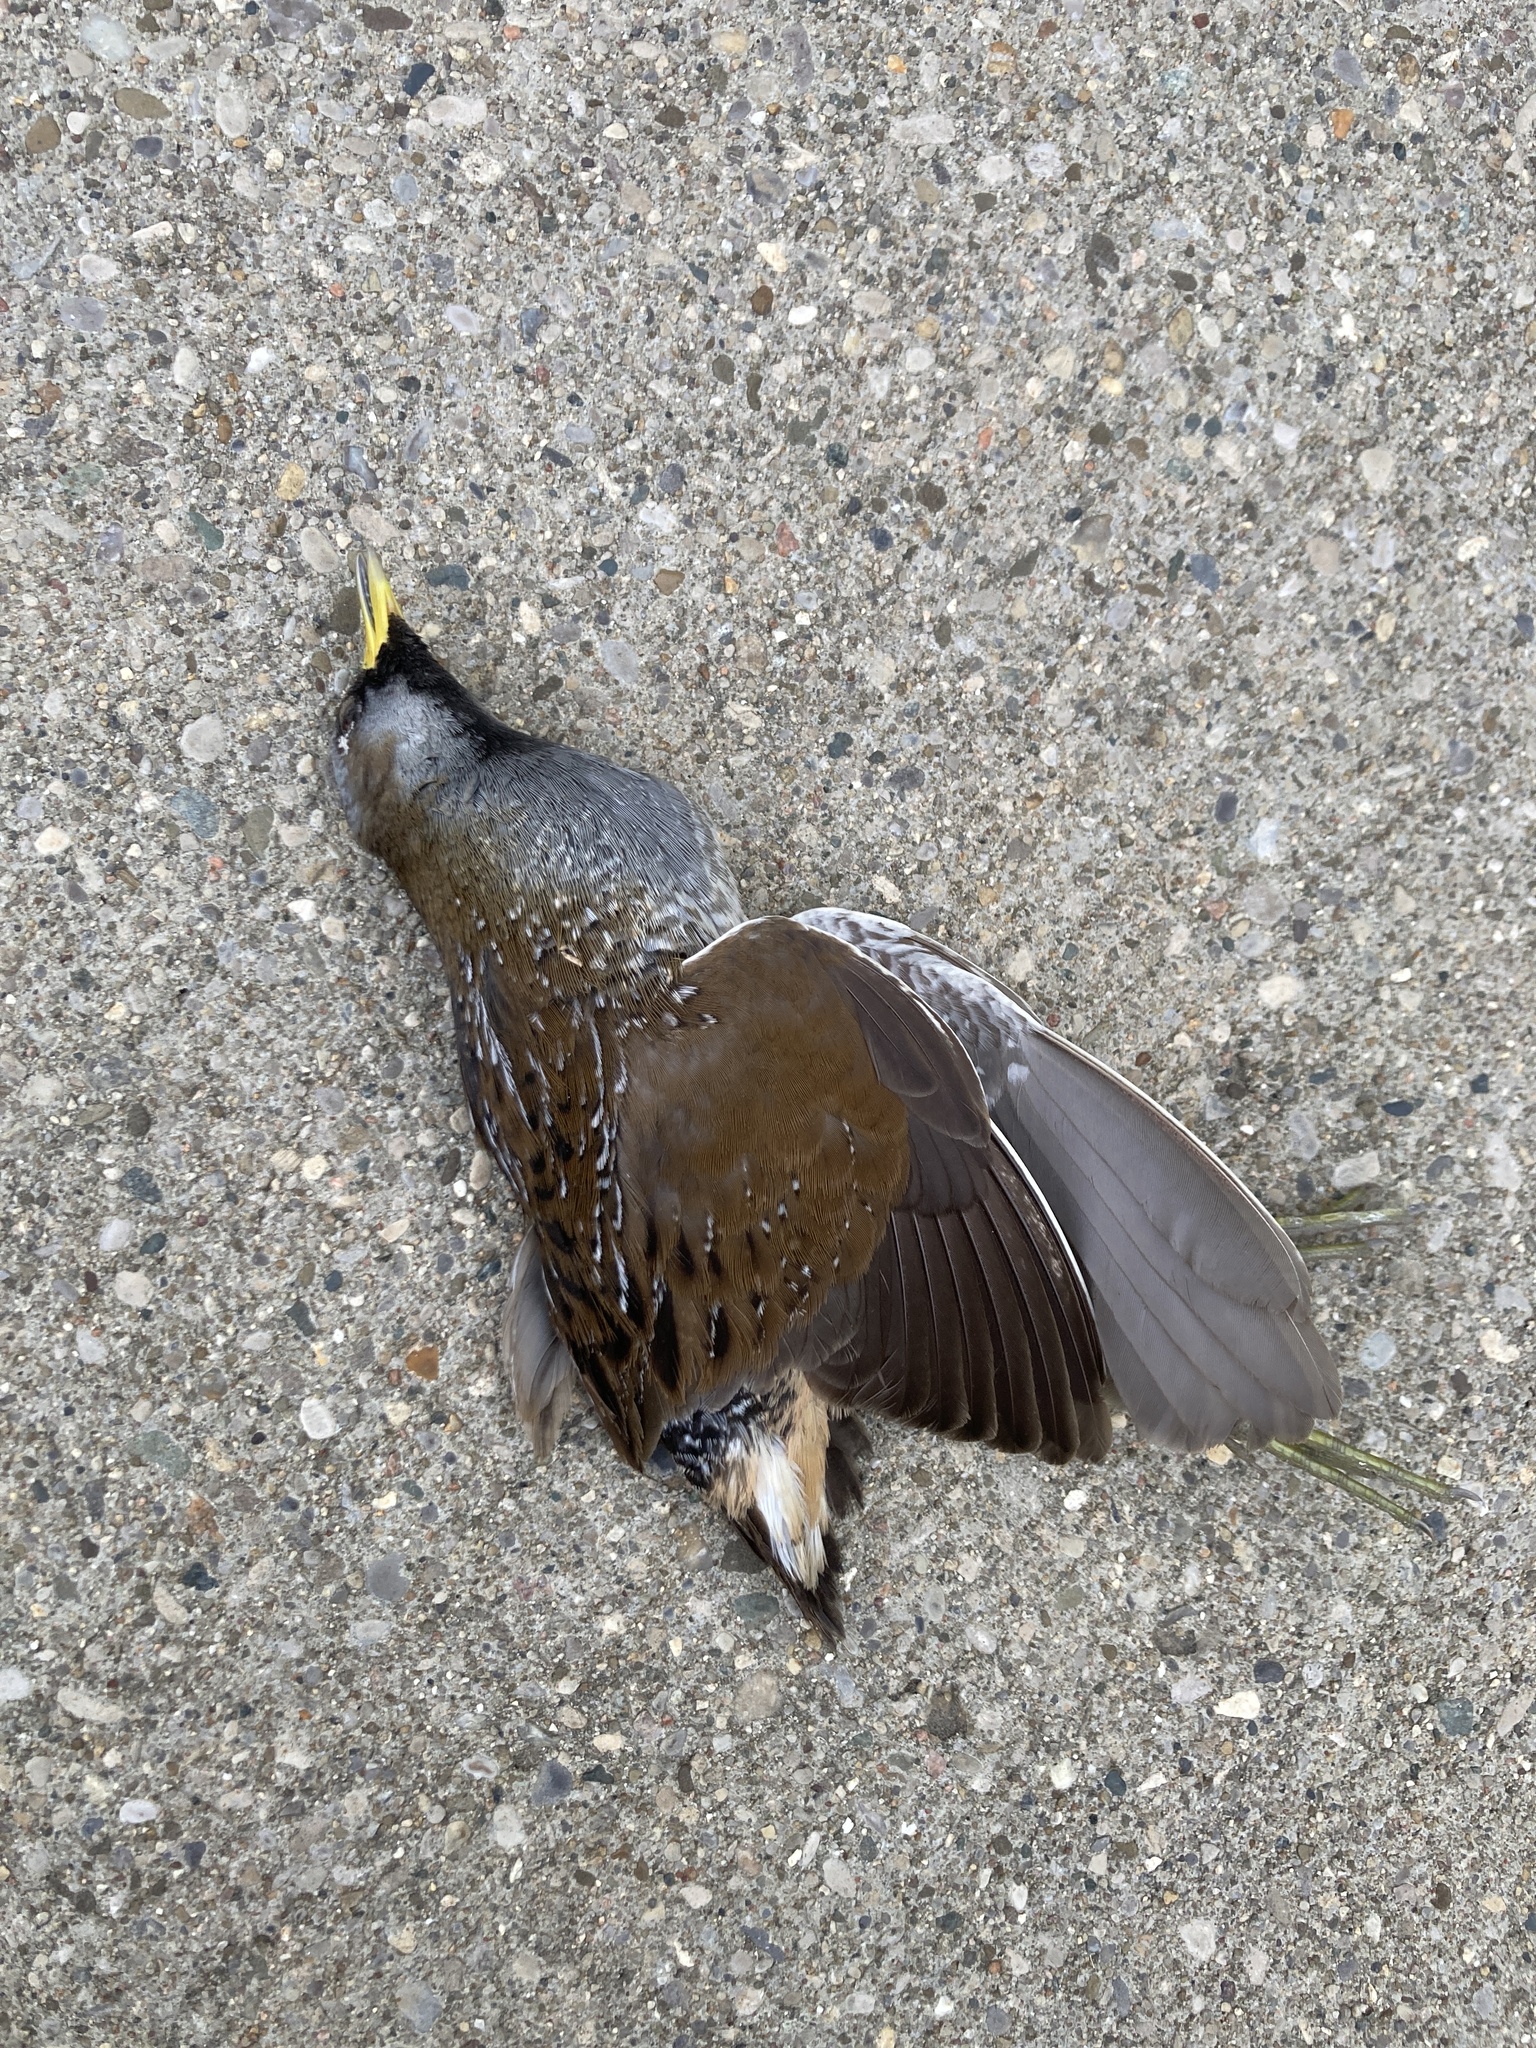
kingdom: Animalia
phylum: Chordata
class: Aves
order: Gruiformes
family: Rallidae
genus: Porzana
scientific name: Porzana carolina
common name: Sora
